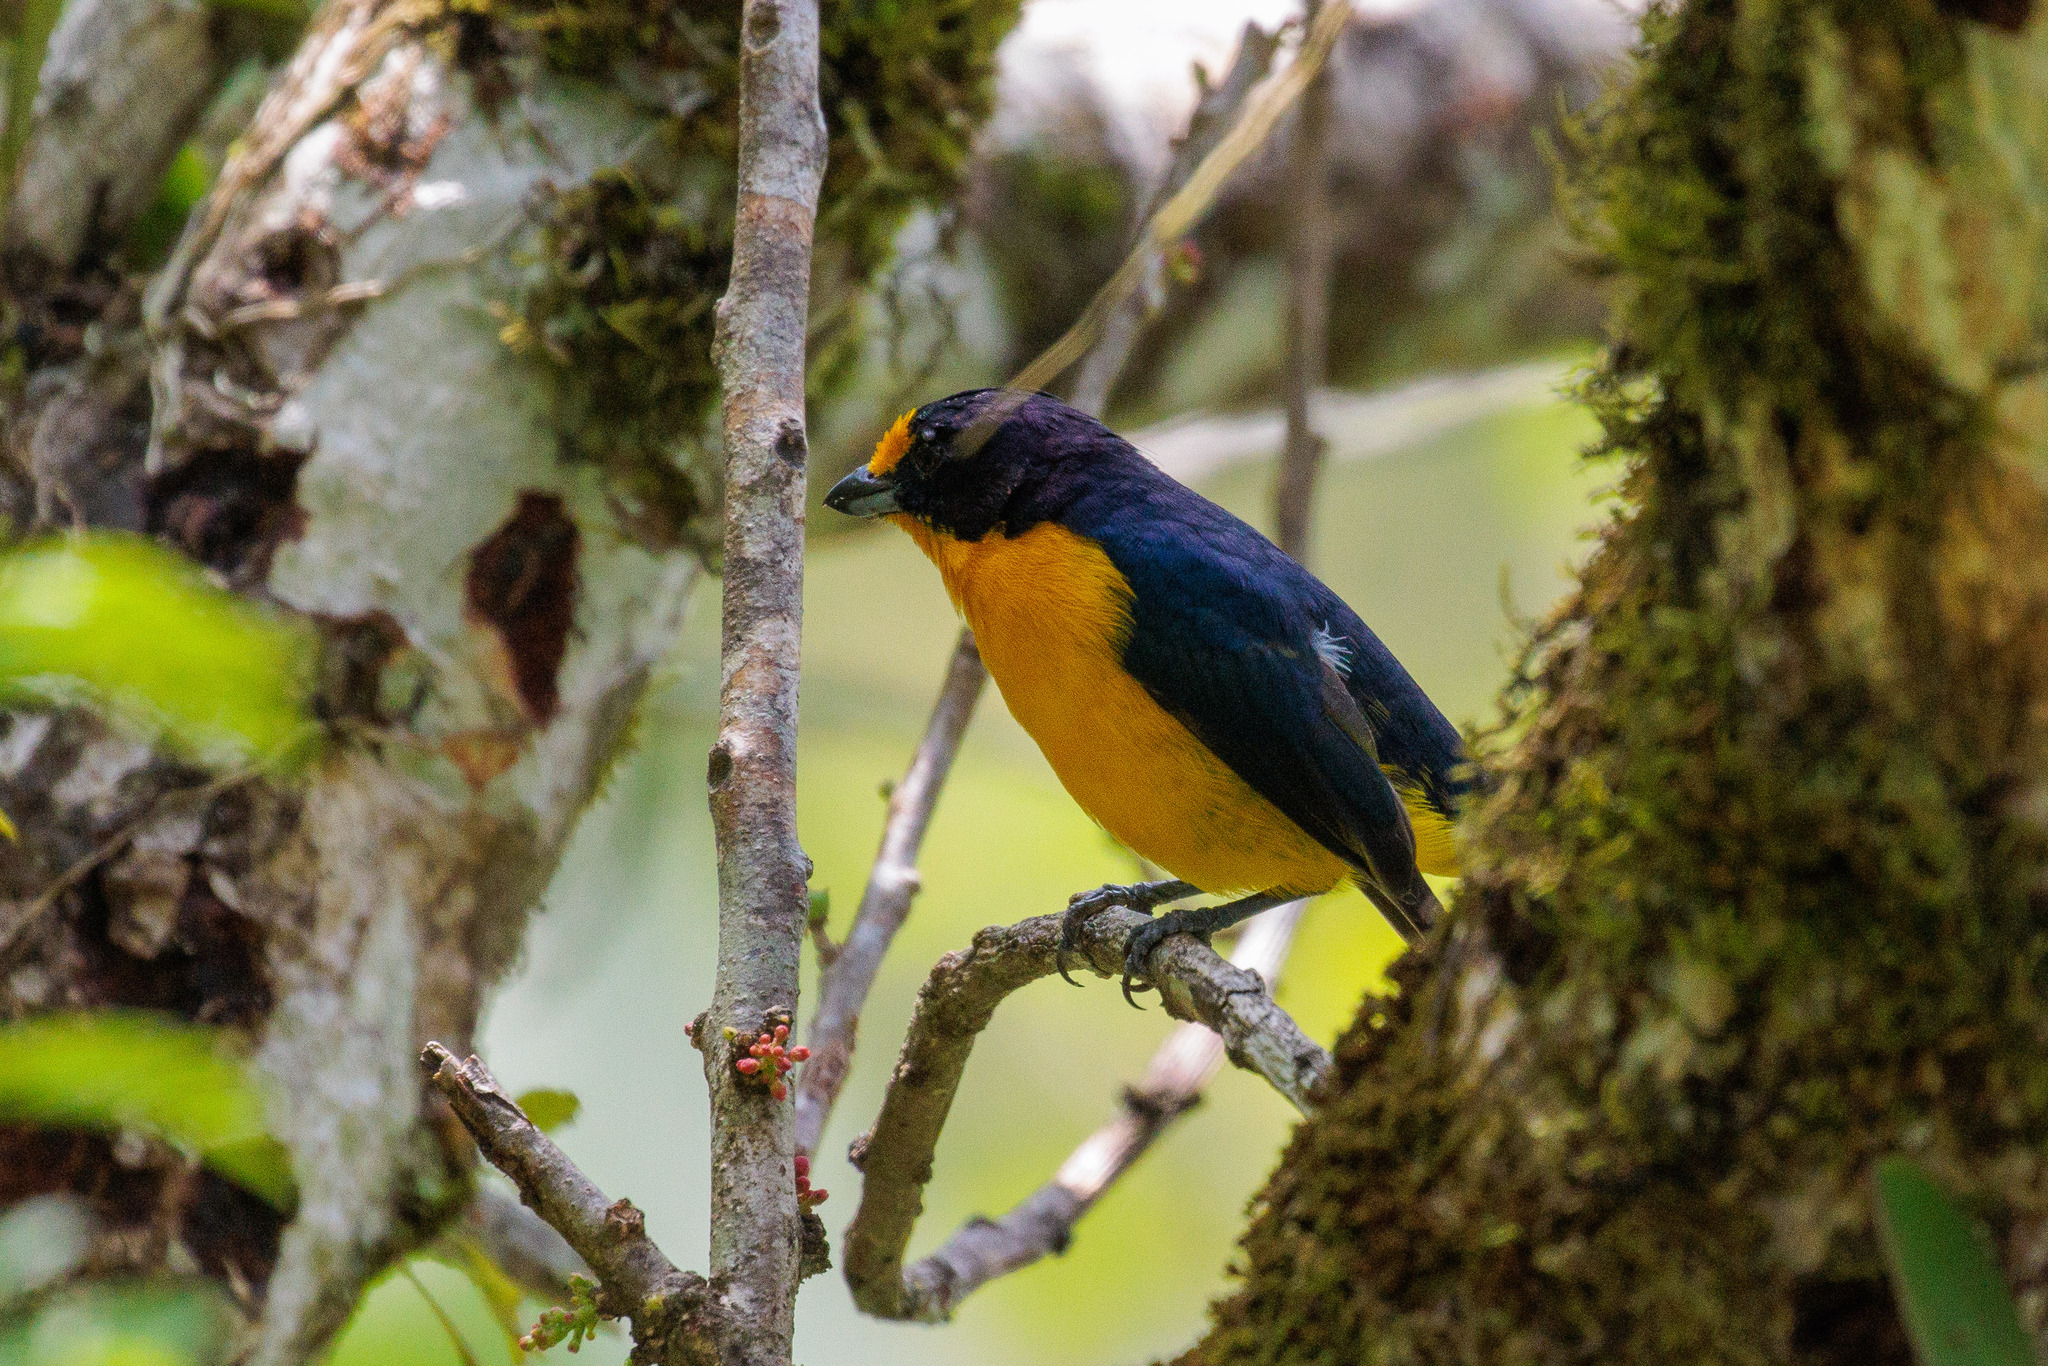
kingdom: Animalia
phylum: Chordata
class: Aves
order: Passeriformes
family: Fringillidae
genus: Euphonia
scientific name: Euphonia violacea
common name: Violaceous euphonia
